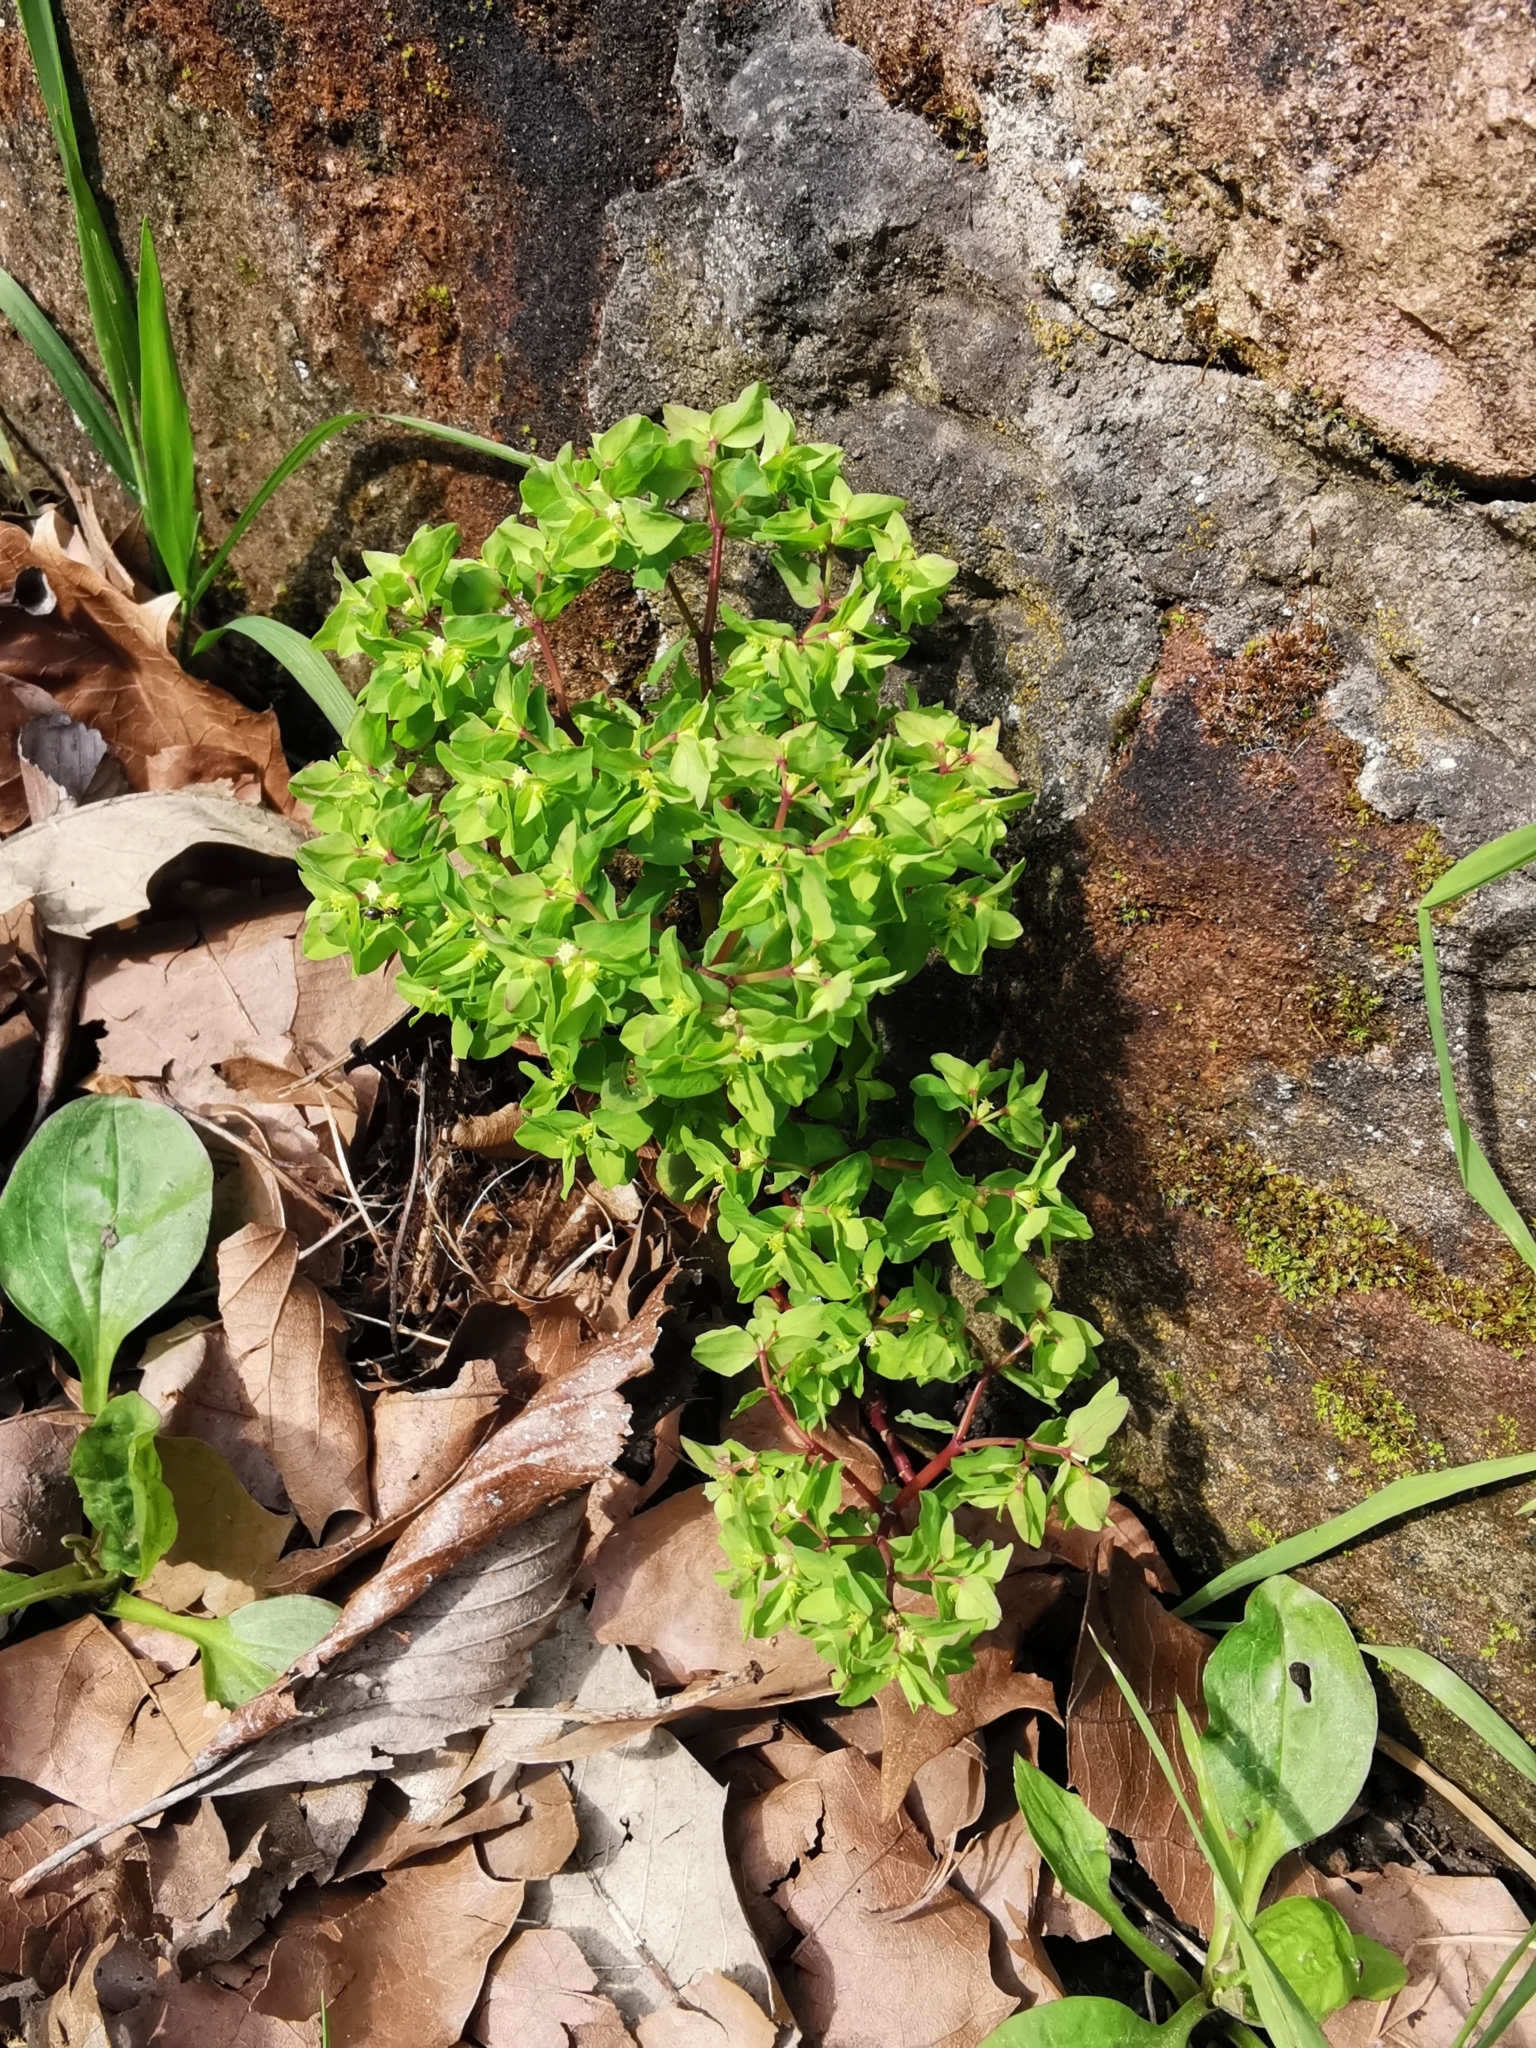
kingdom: Plantae
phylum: Tracheophyta
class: Magnoliopsida
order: Malpighiales
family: Euphorbiaceae
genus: Euphorbia
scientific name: Euphorbia peplus
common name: Petty spurge
